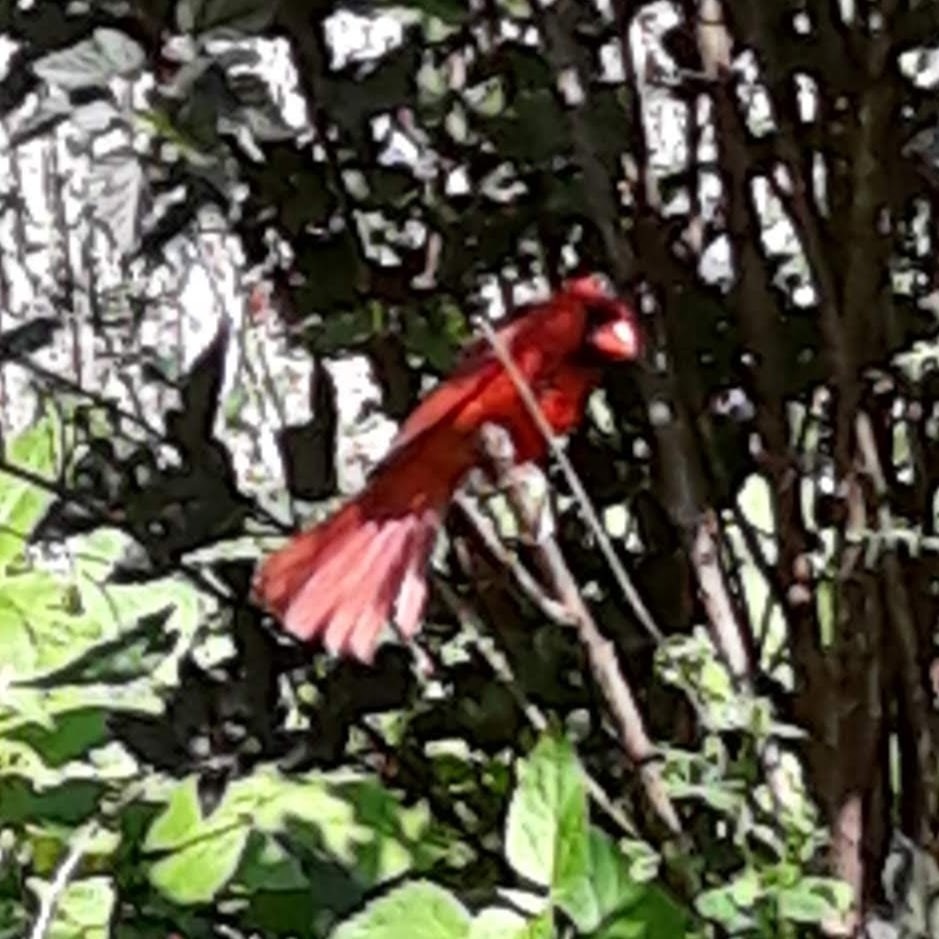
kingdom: Animalia
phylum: Chordata
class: Aves
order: Passeriformes
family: Cardinalidae
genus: Cardinalis
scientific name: Cardinalis cardinalis
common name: Northern cardinal
